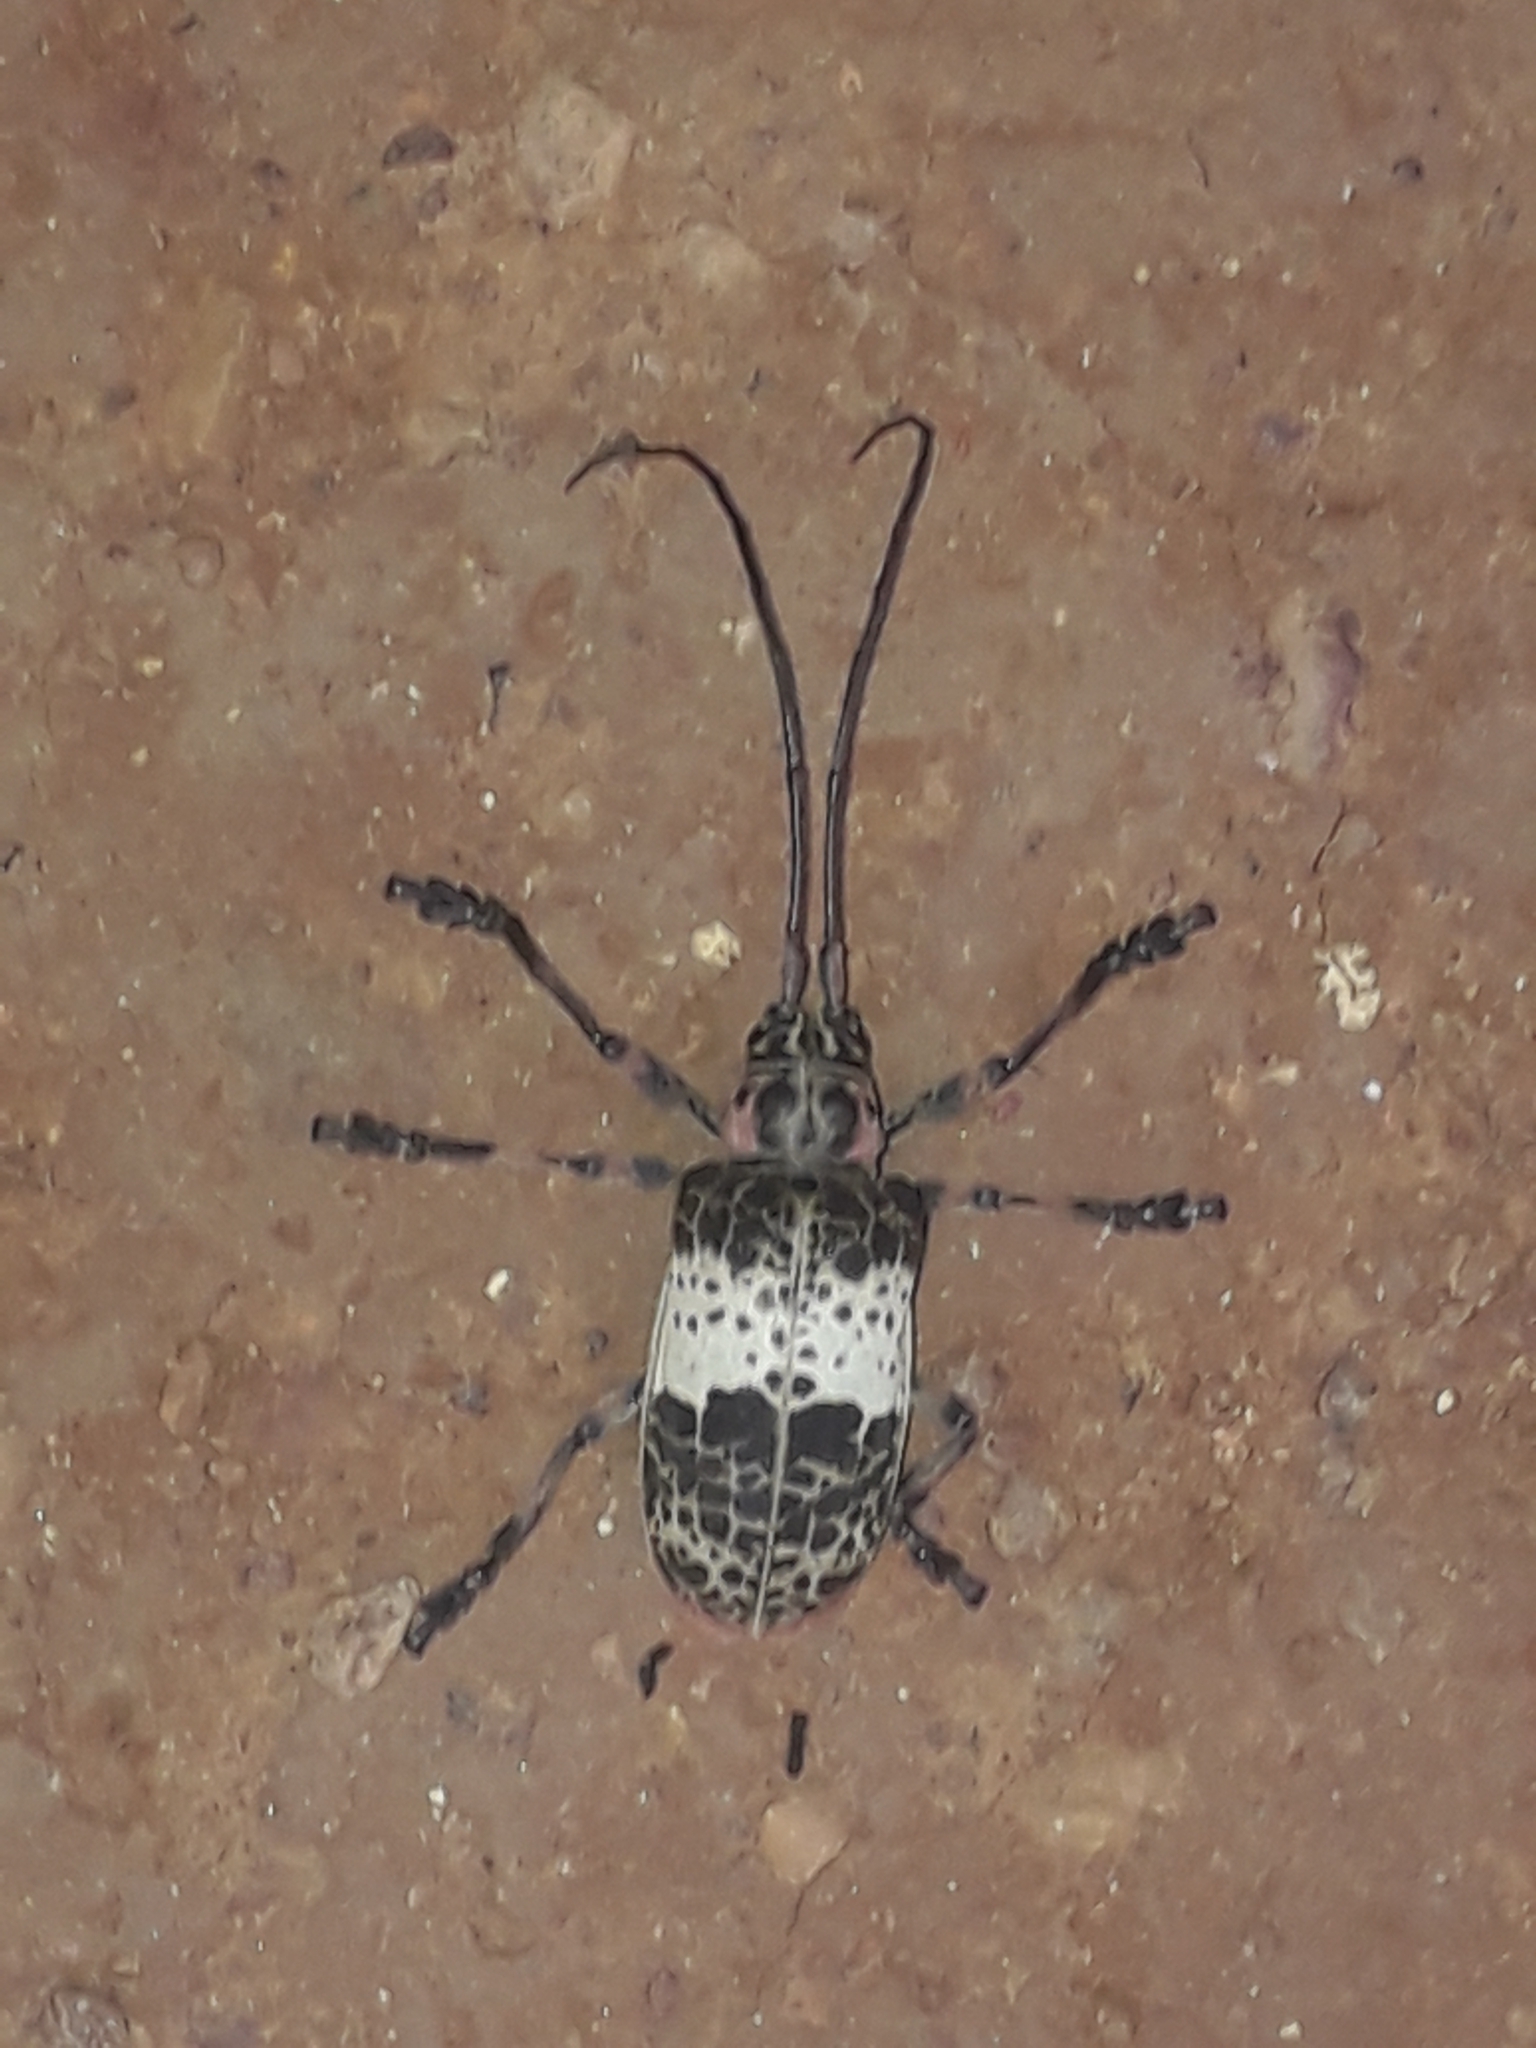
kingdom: Animalia
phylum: Arthropoda
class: Insecta
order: Coleoptera
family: Cerambycidae
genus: Ceroplesis
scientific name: Ceroplesis adusta
